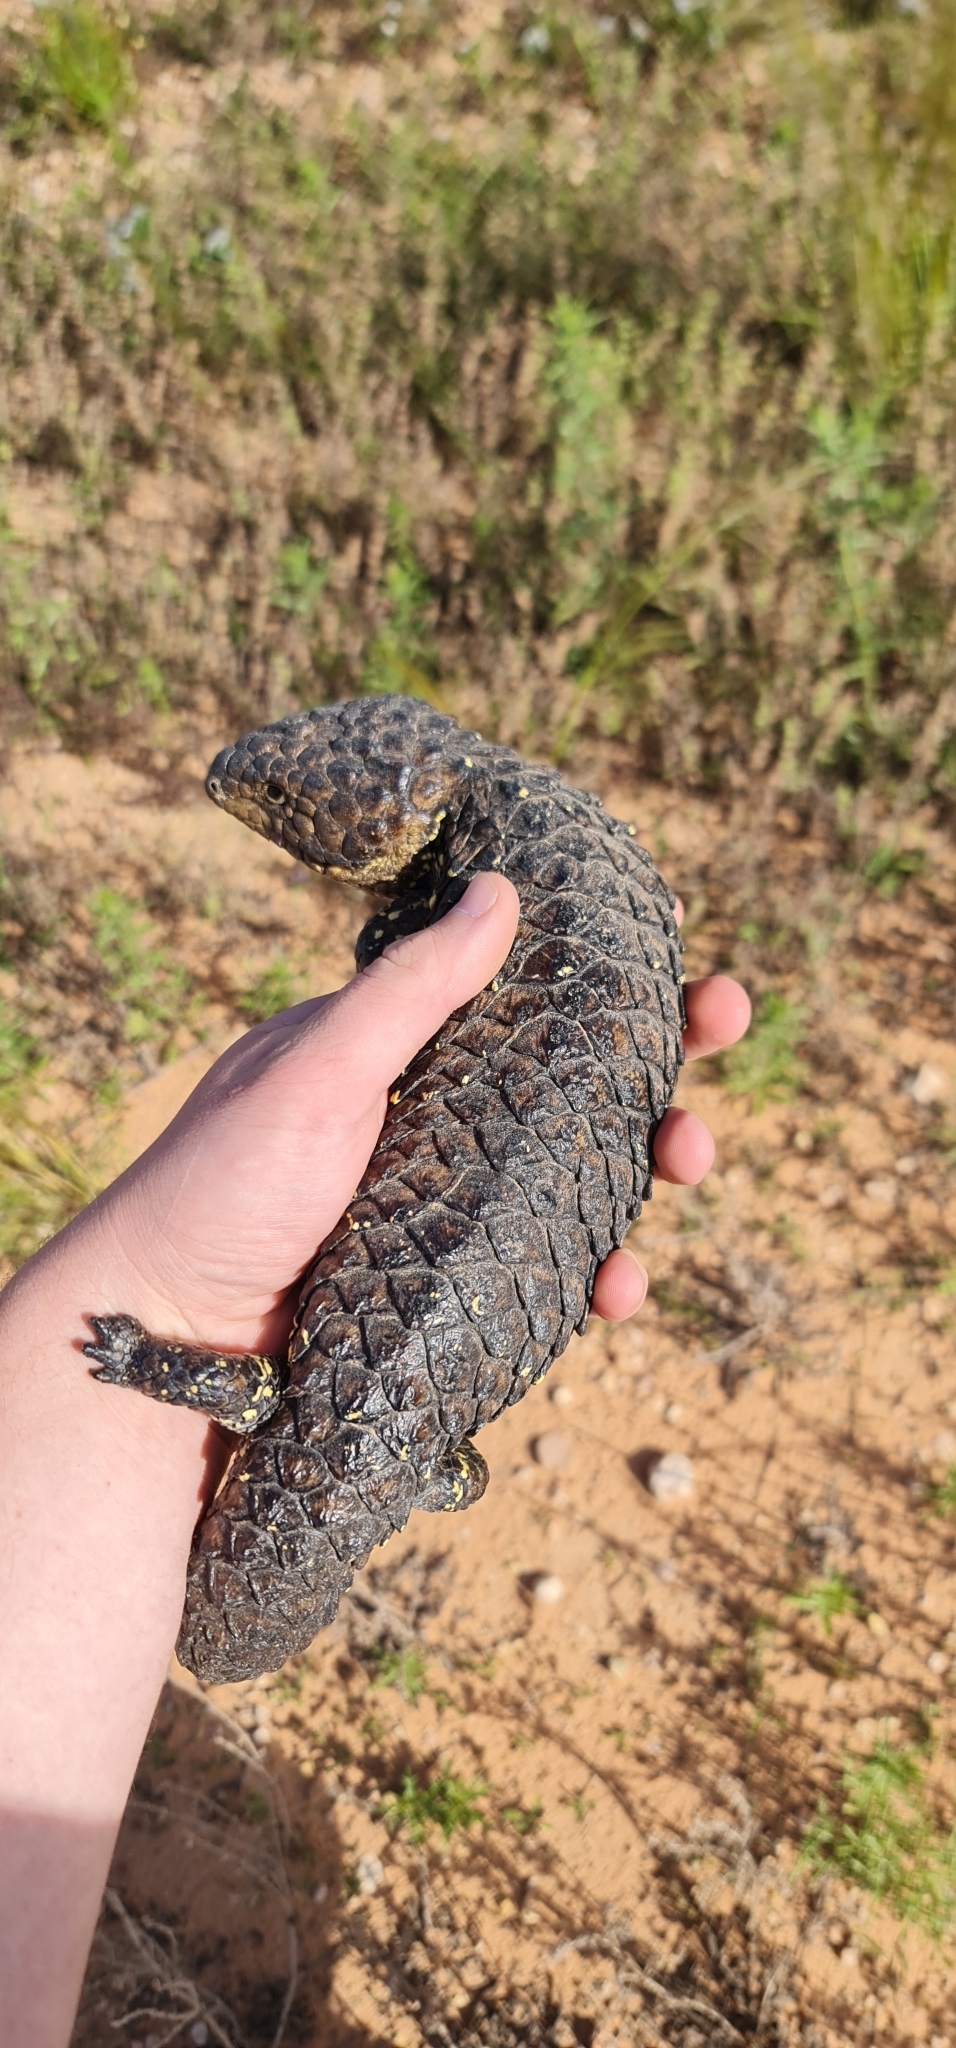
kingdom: Animalia
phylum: Chordata
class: Squamata
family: Scincidae
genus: Tiliqua
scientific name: Tiliqua rugosa
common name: Pinecone lizard
